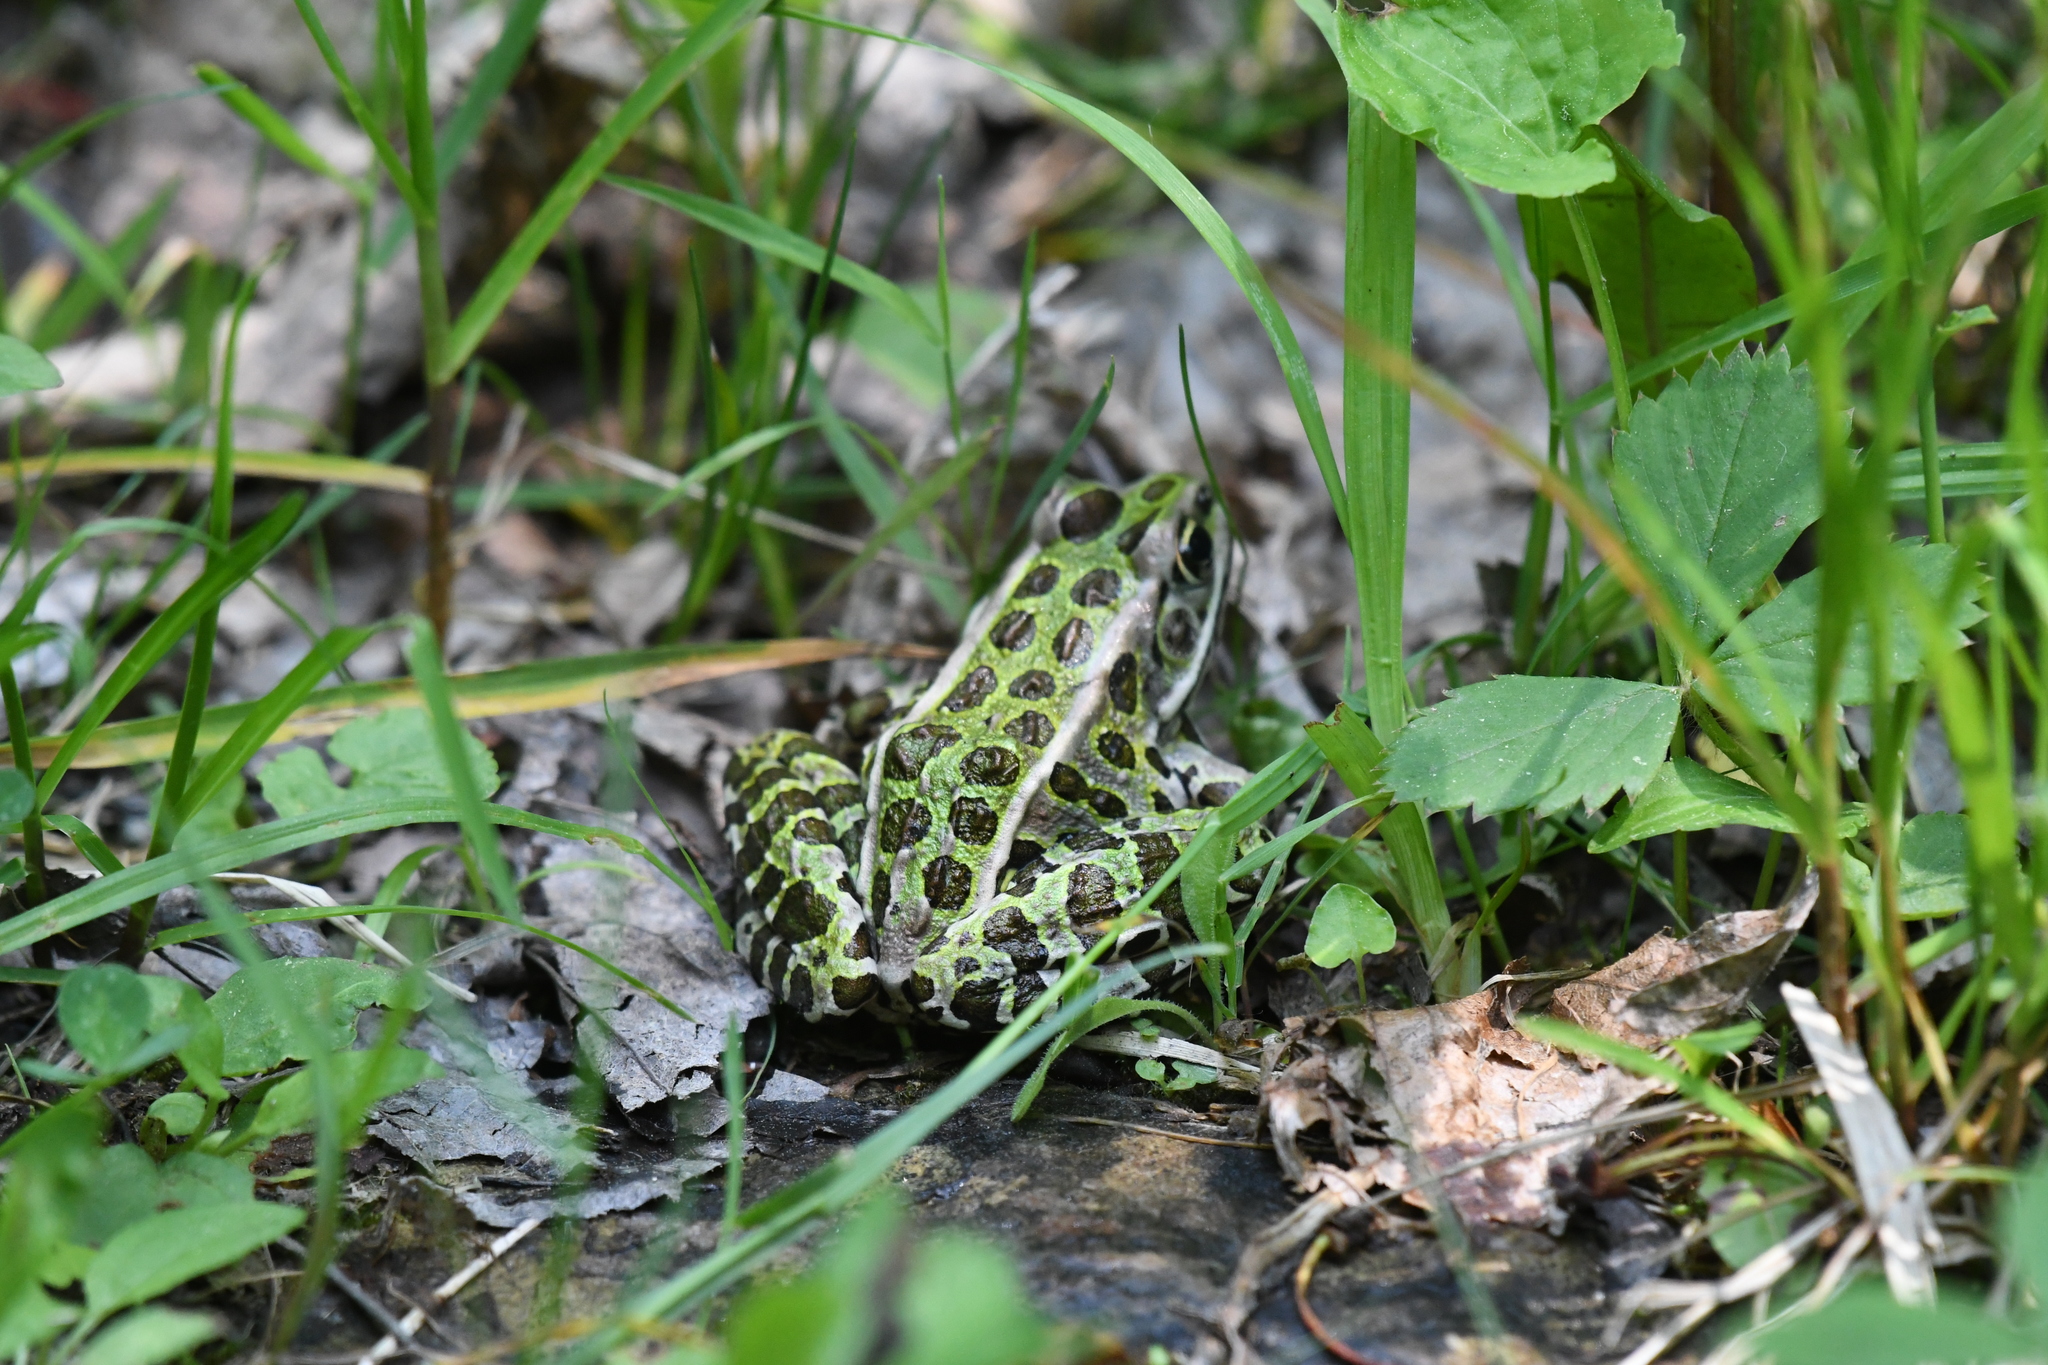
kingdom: Animalia
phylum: Chordata
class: Amphibia
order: Anura
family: Ranidae
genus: Lithobates
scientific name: Lithobates pipiens
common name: Northern leopard frog
